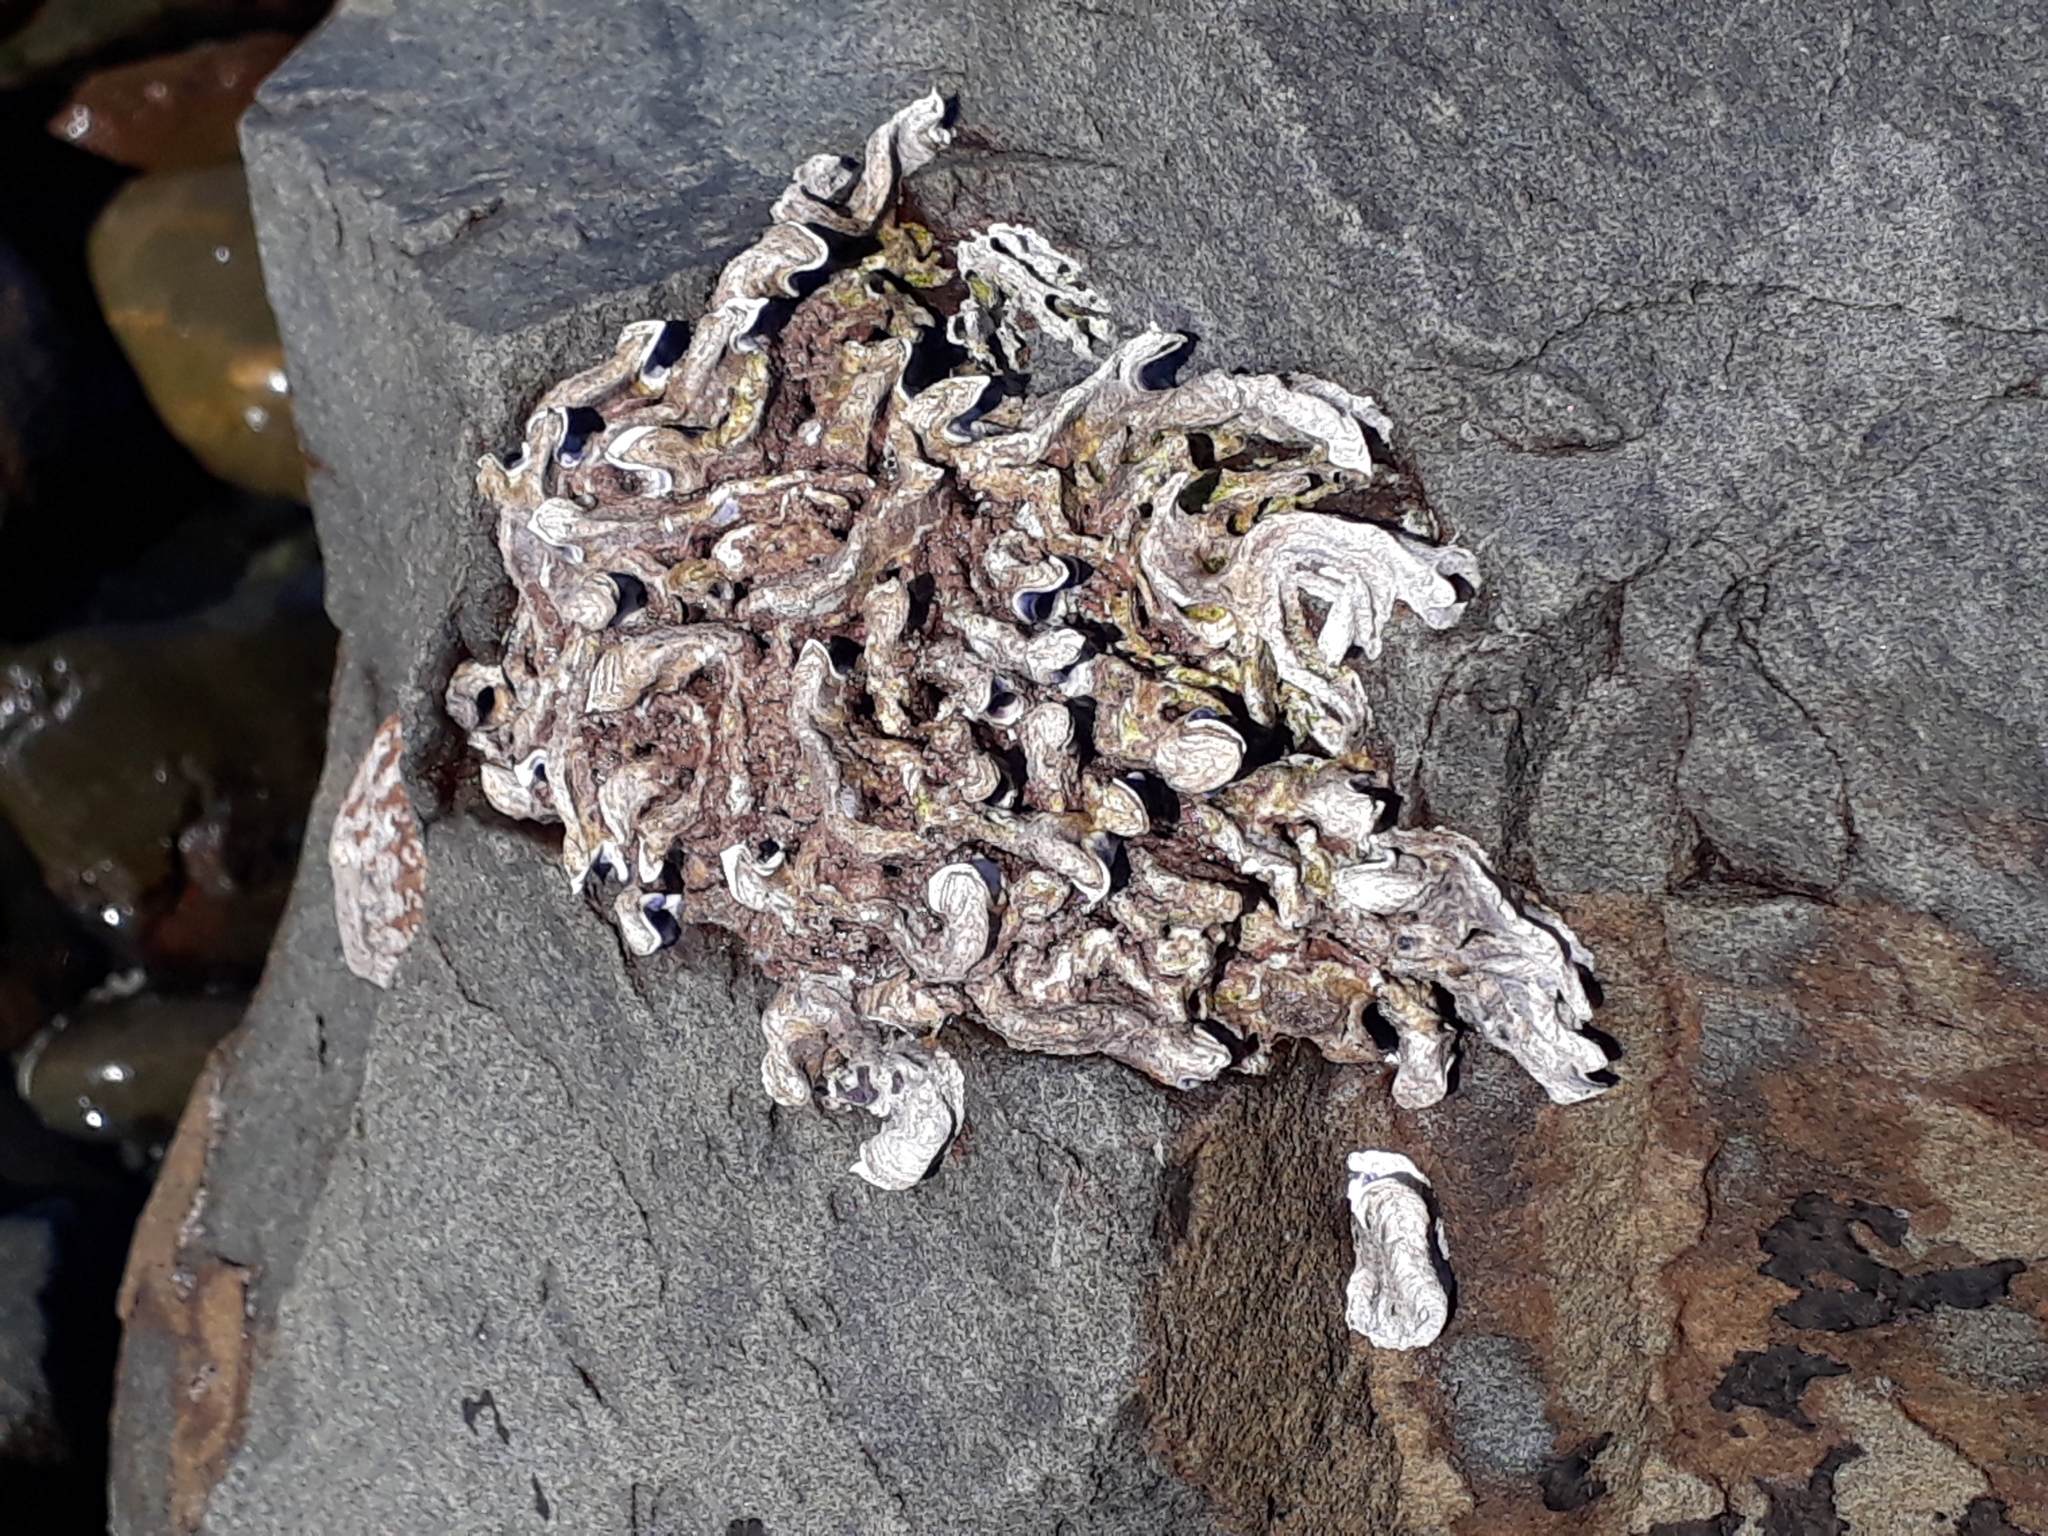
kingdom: Animalia
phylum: Annelida
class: Polychaeta
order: Sabellida
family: Serpulidae
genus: Spirobranchus
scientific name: Spirobranchus cariniferus
